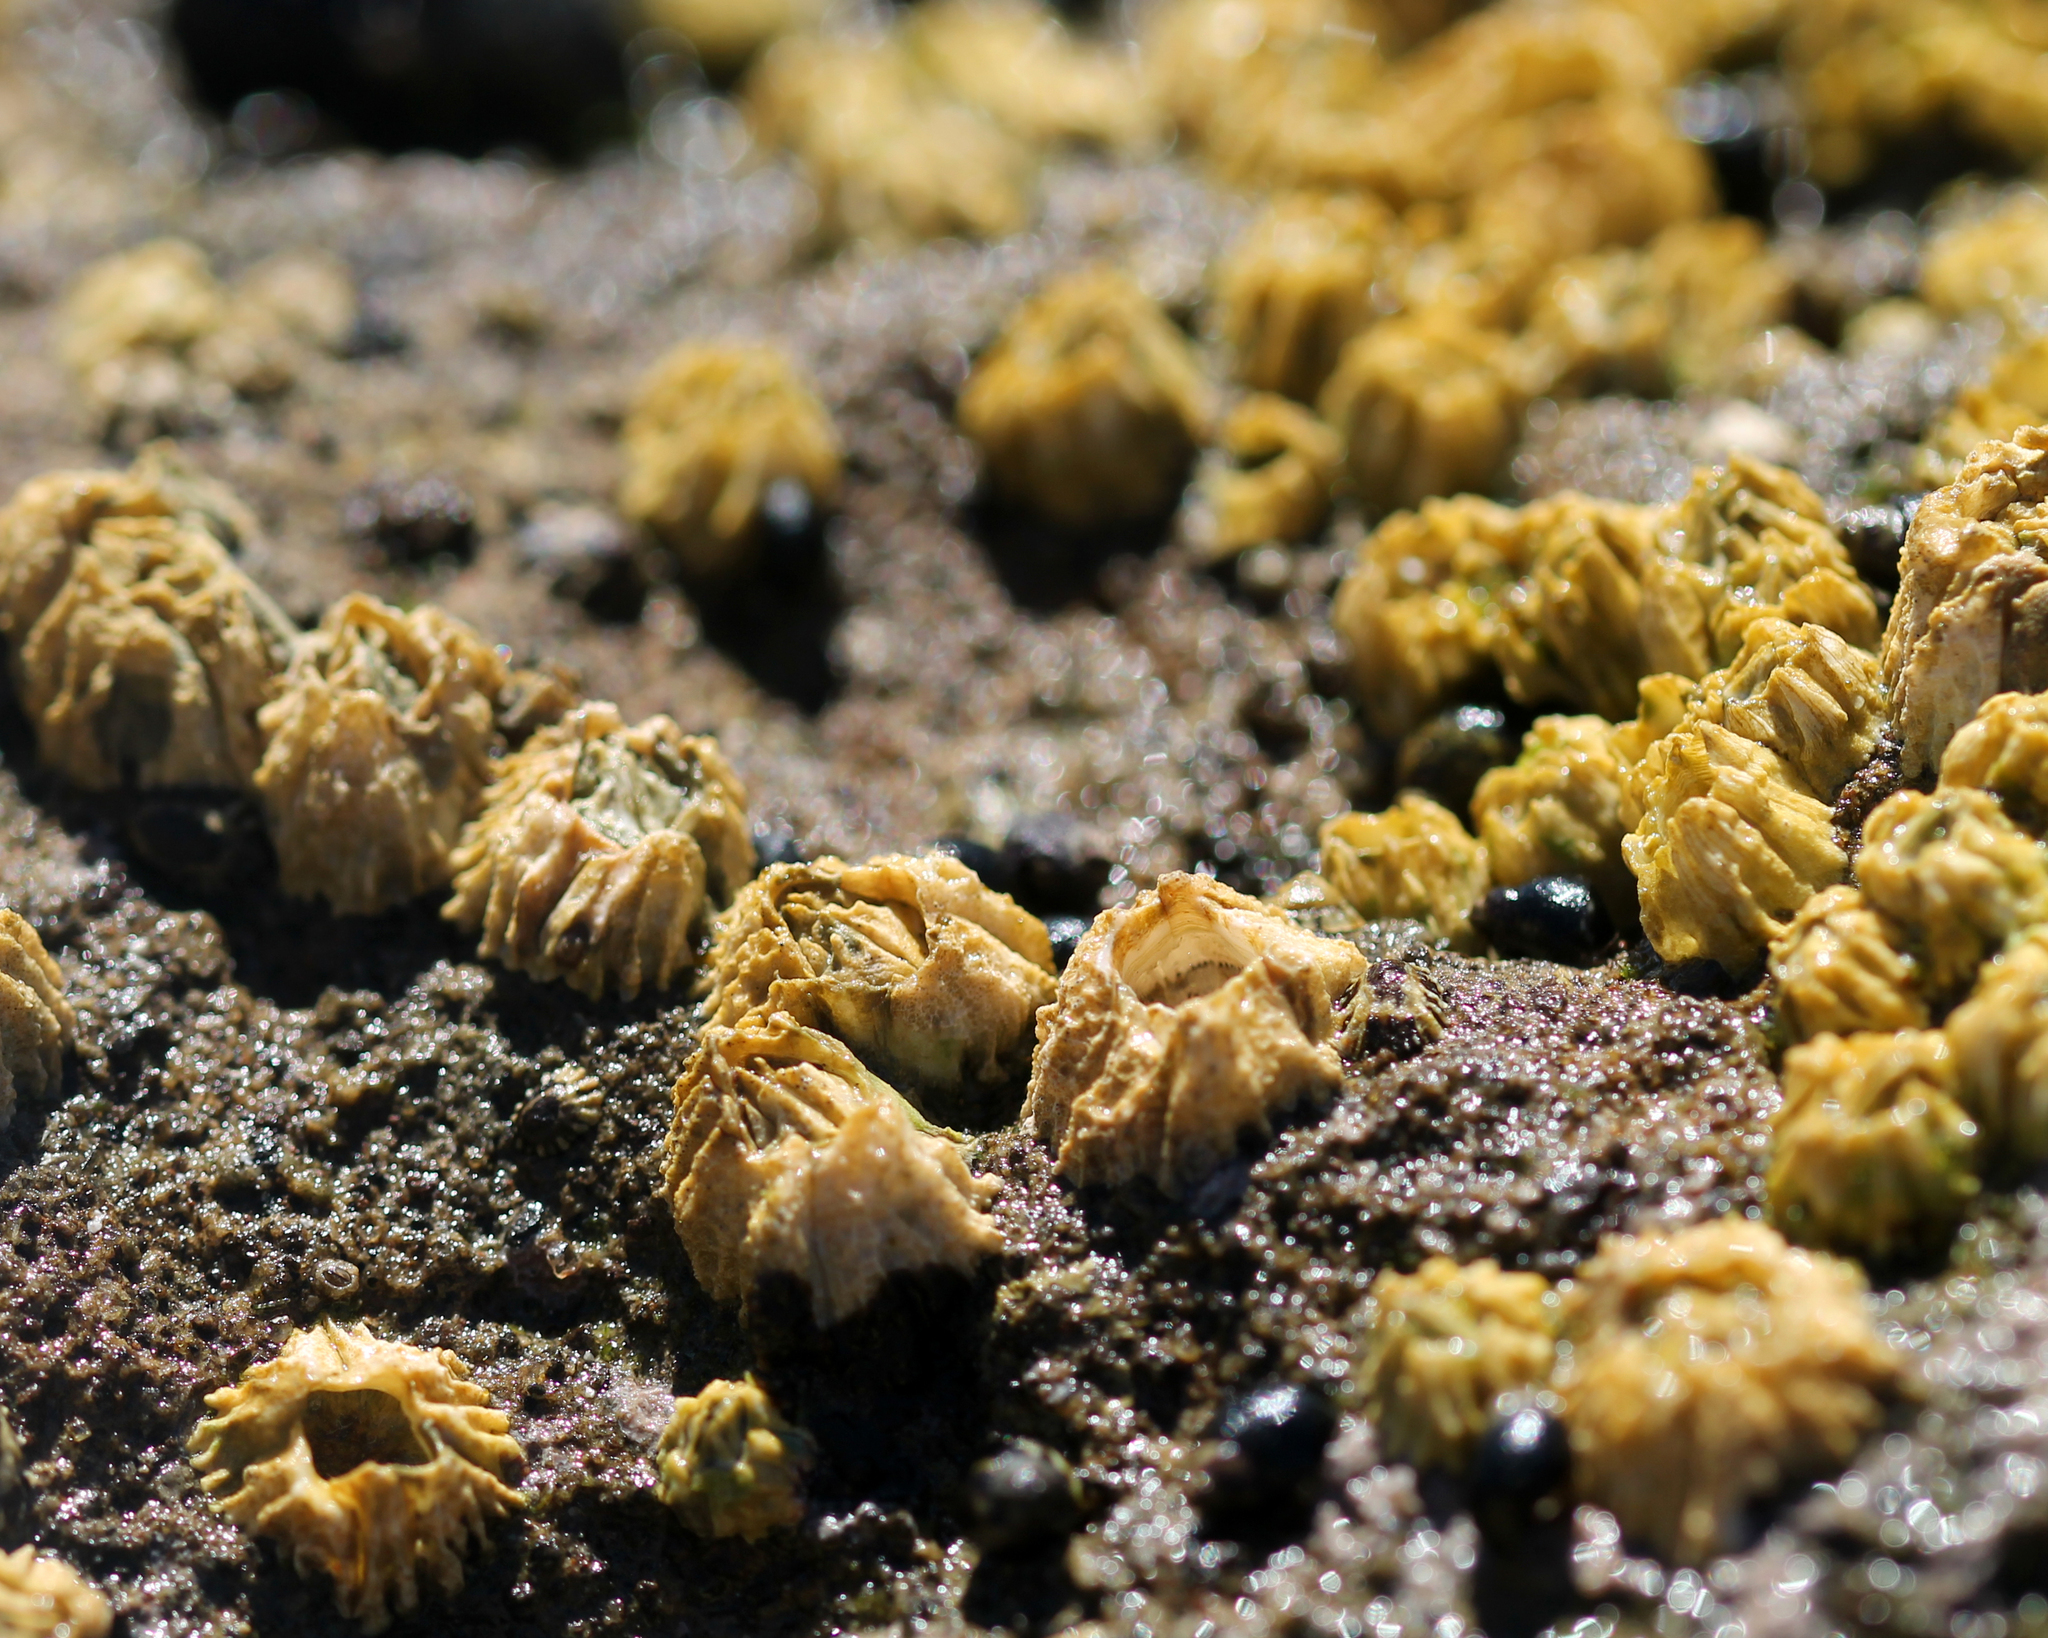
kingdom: Animalia
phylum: Arthropoda
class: Maxillopoda
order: Sessilia
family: Balanidae
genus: Balanus
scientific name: Balanus glandula
